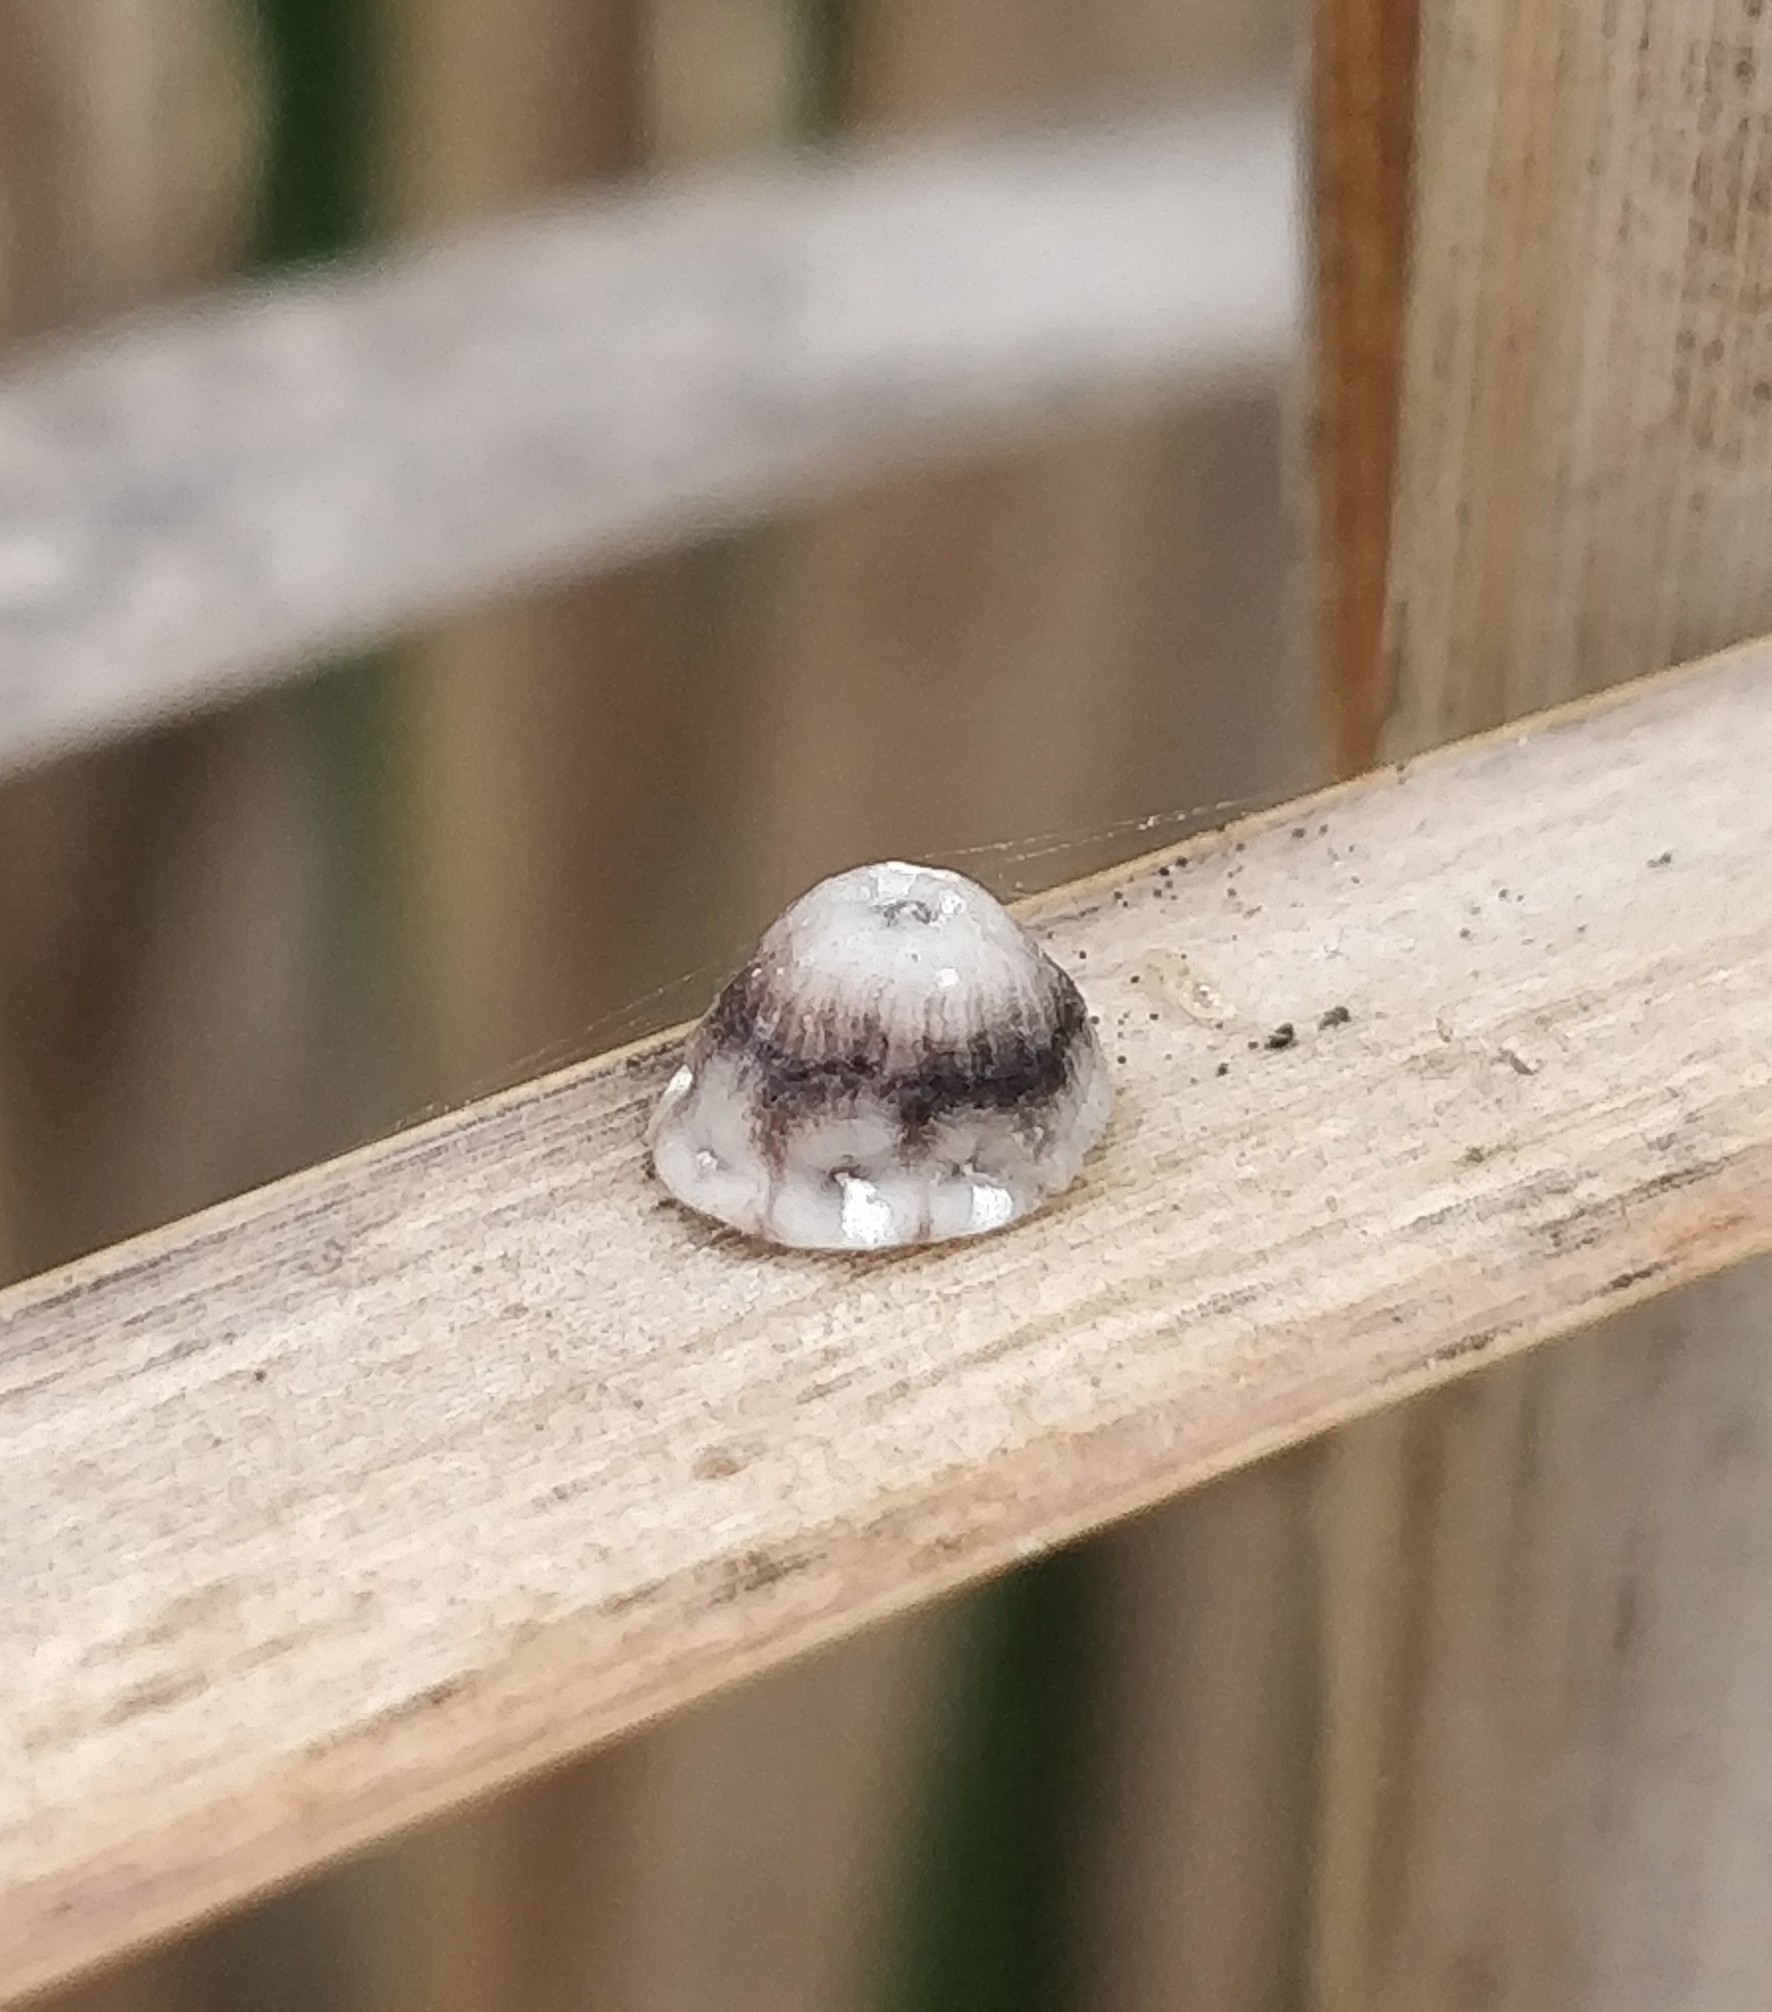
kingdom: Animalia
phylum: Arthropoda
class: Insecta
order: Hemiptera
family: Coccidae
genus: Ceroplastes
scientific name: Ceroplastes rusci
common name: Barnacle scale
